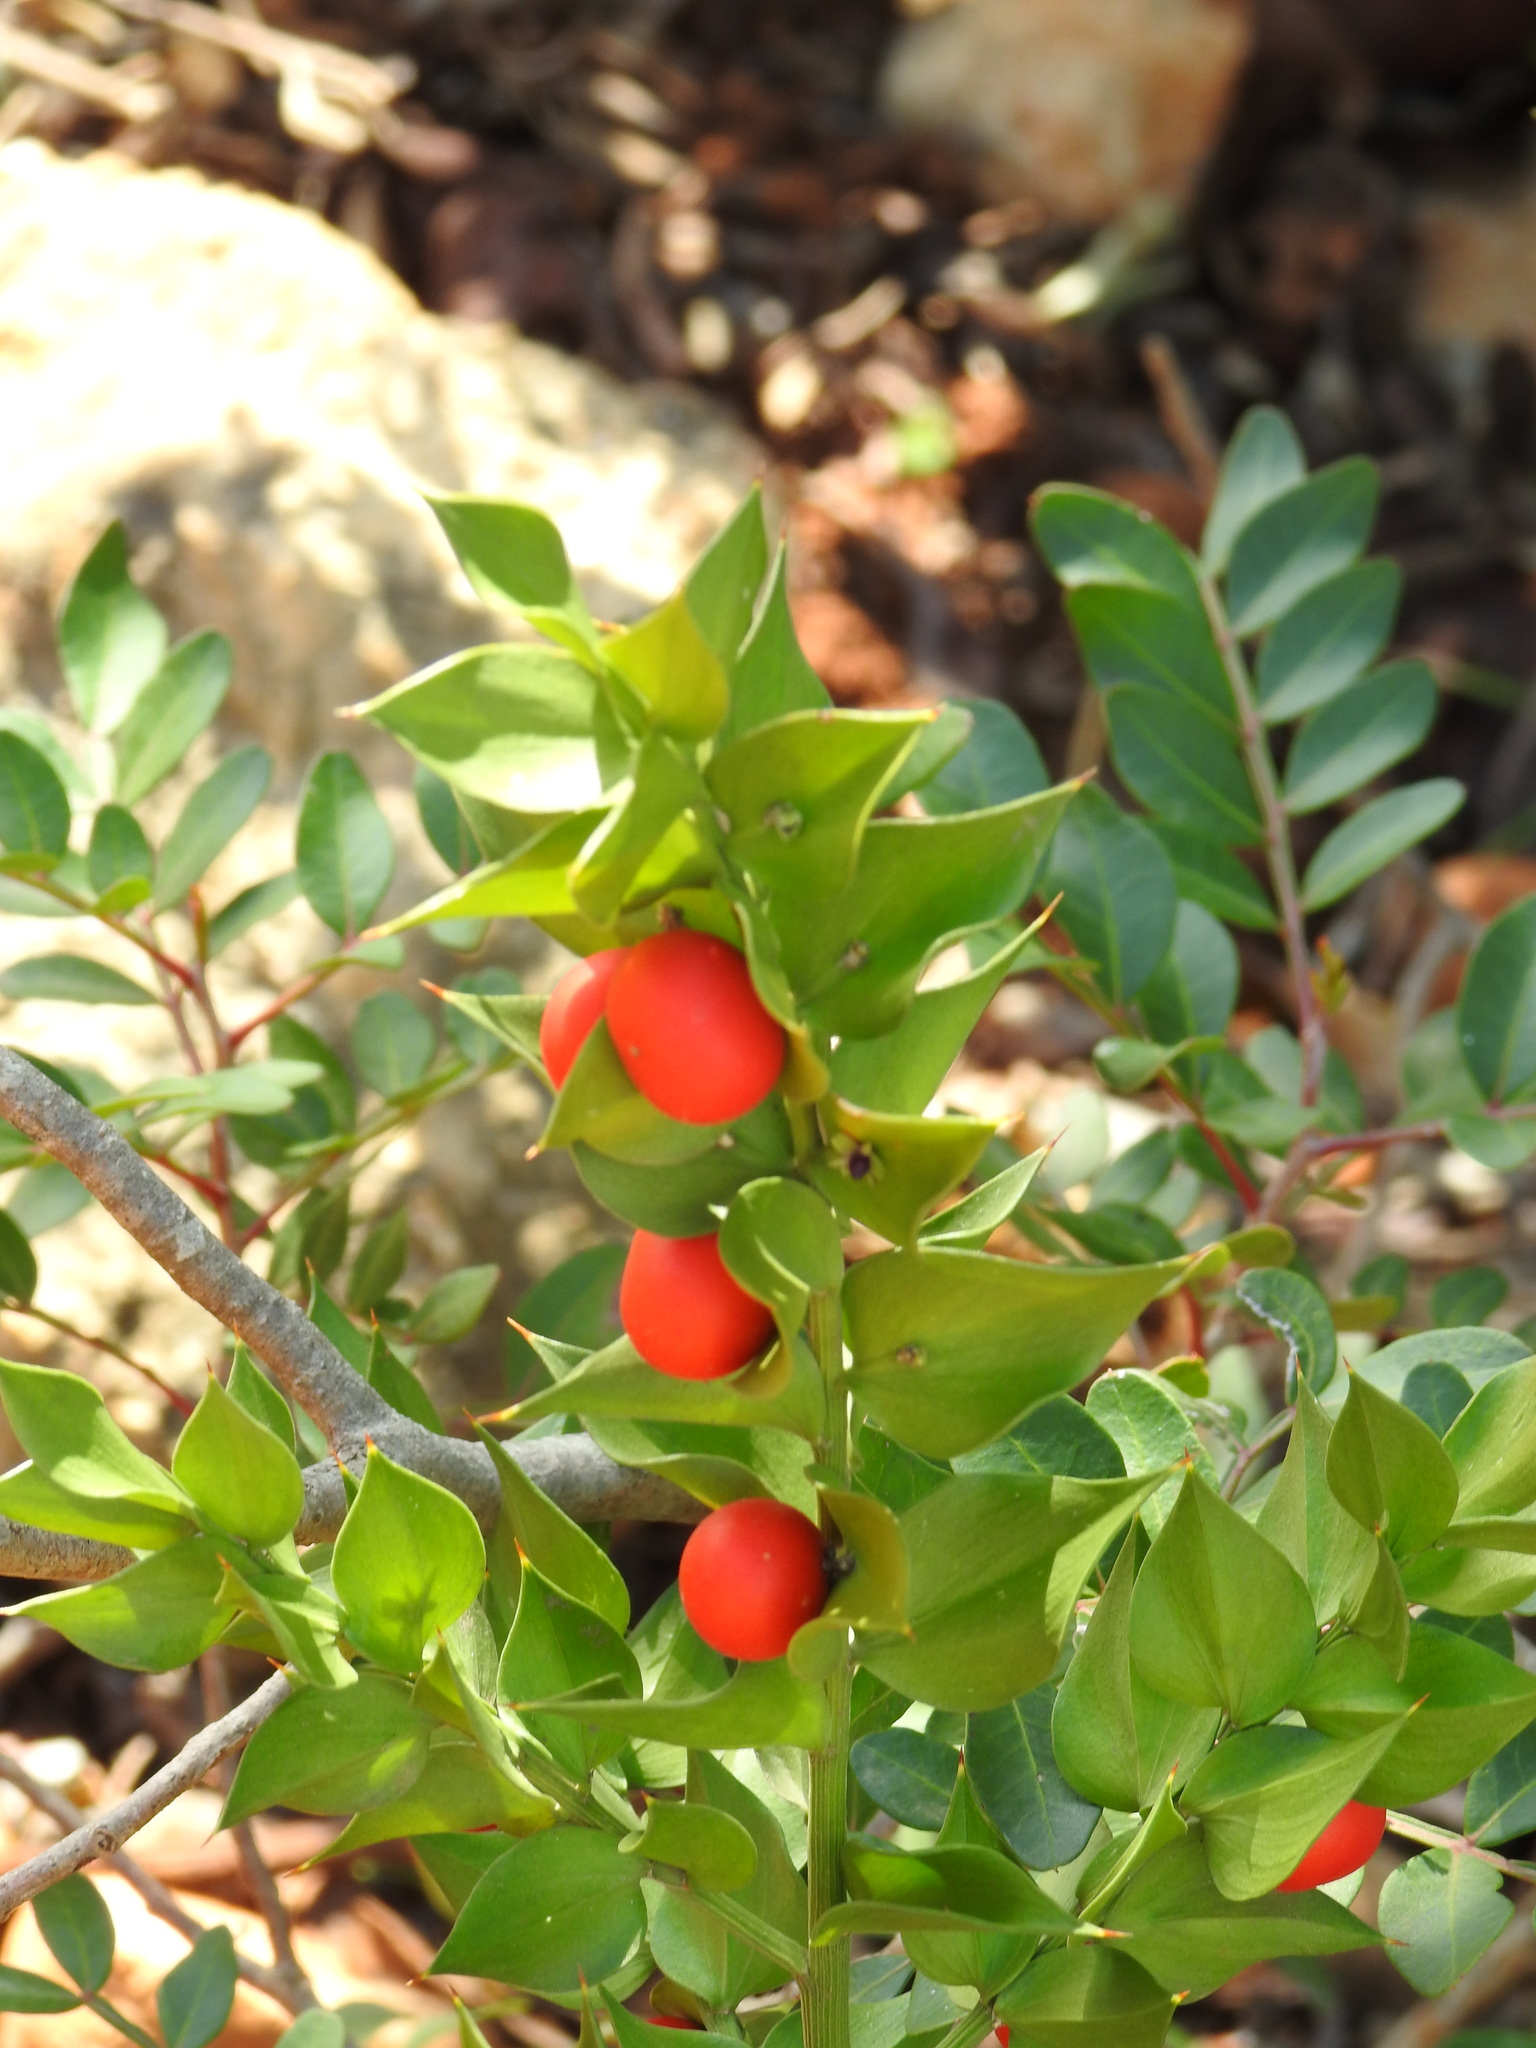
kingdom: Plantae
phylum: Tracheophyta
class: Liliopsida
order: Asparagales
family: Asparagaceae
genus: Ruscus
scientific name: Ruscus aculeatus
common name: Butcher's-broom
